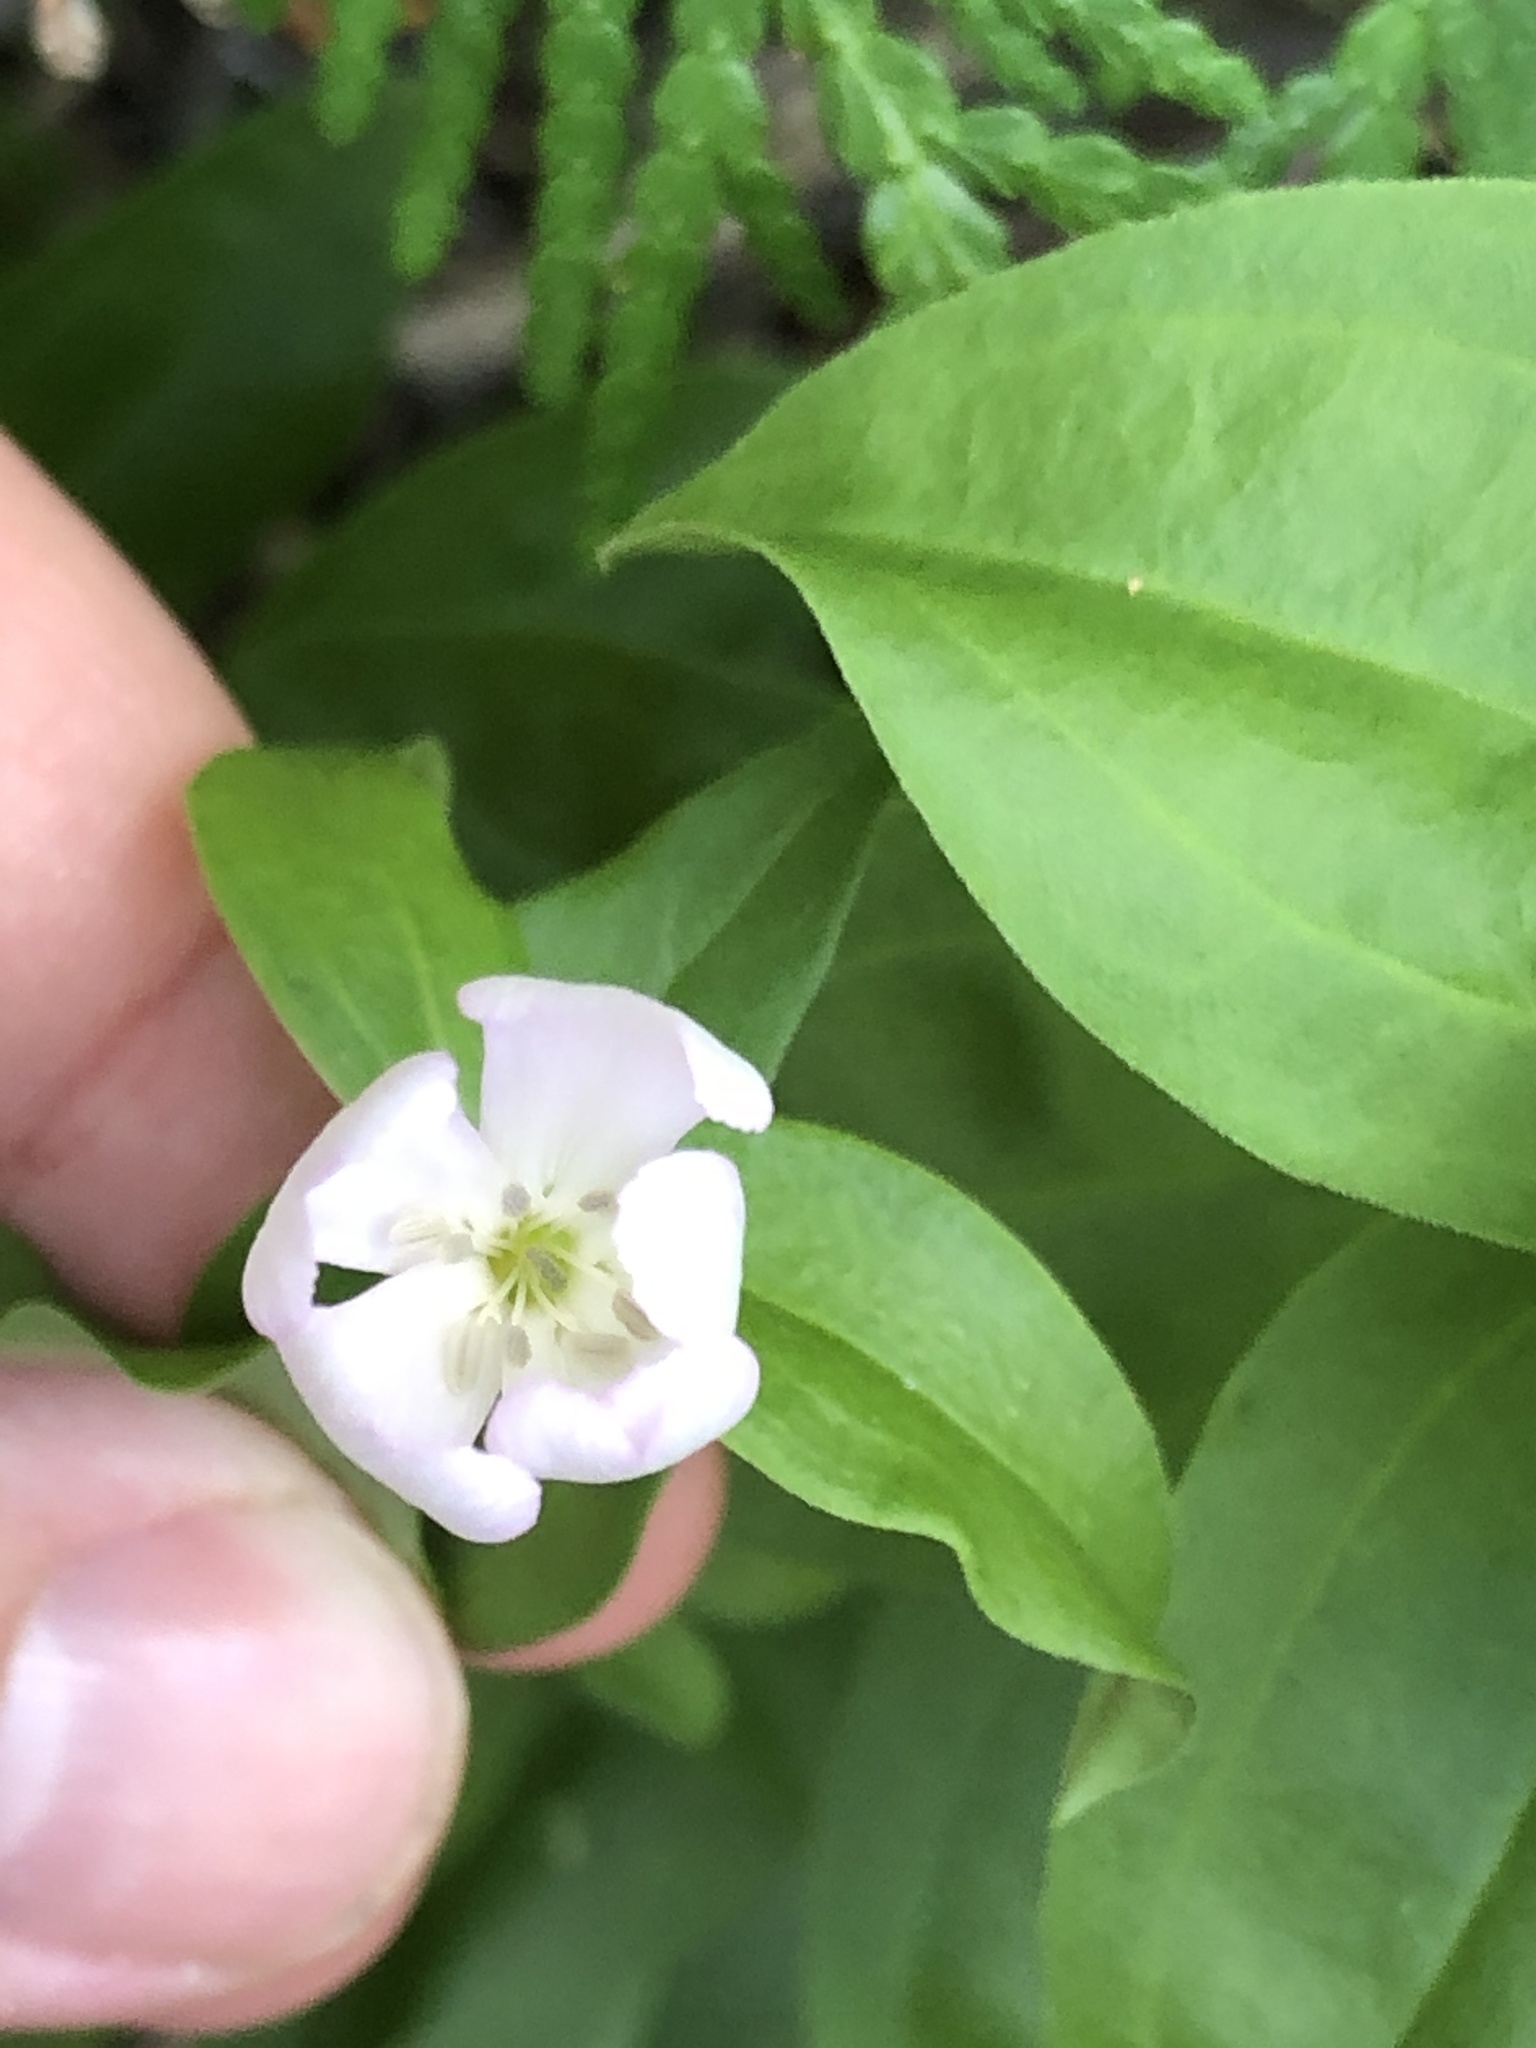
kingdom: Plantae
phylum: Tracheophyta
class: Magnoliopsida
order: Caryophyllales
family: Caryophyllaceae
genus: Saponaria
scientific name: Saponaria officinalis
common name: Soapwort
